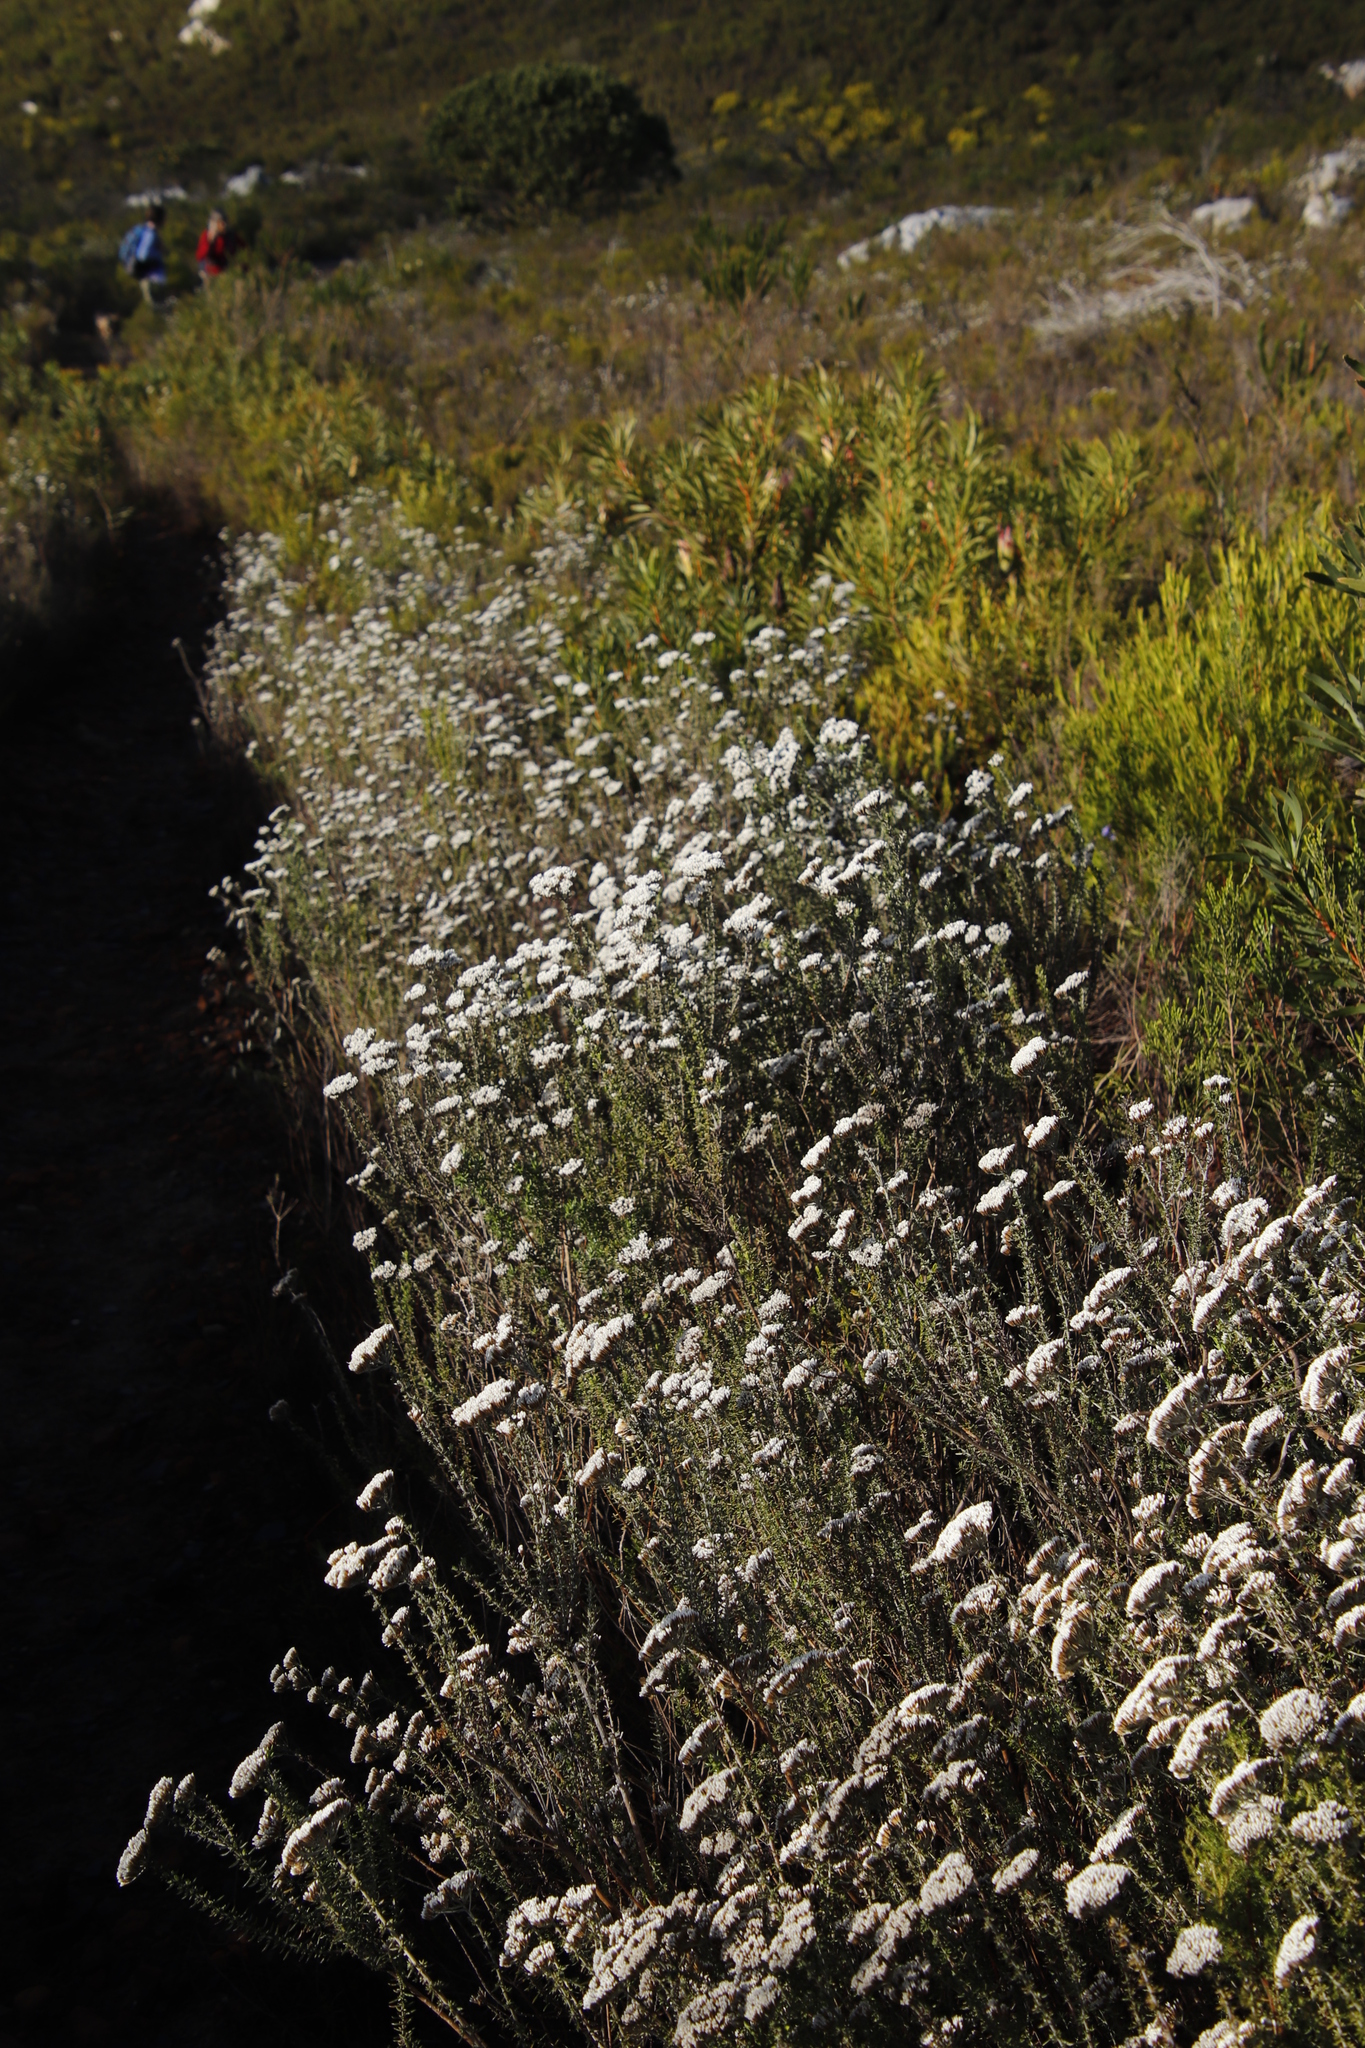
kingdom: Plantae
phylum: Tracheophyta
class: Magnoliopsida
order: Asterales
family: Asteraceae
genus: Metalasia
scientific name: Metalasia densa
